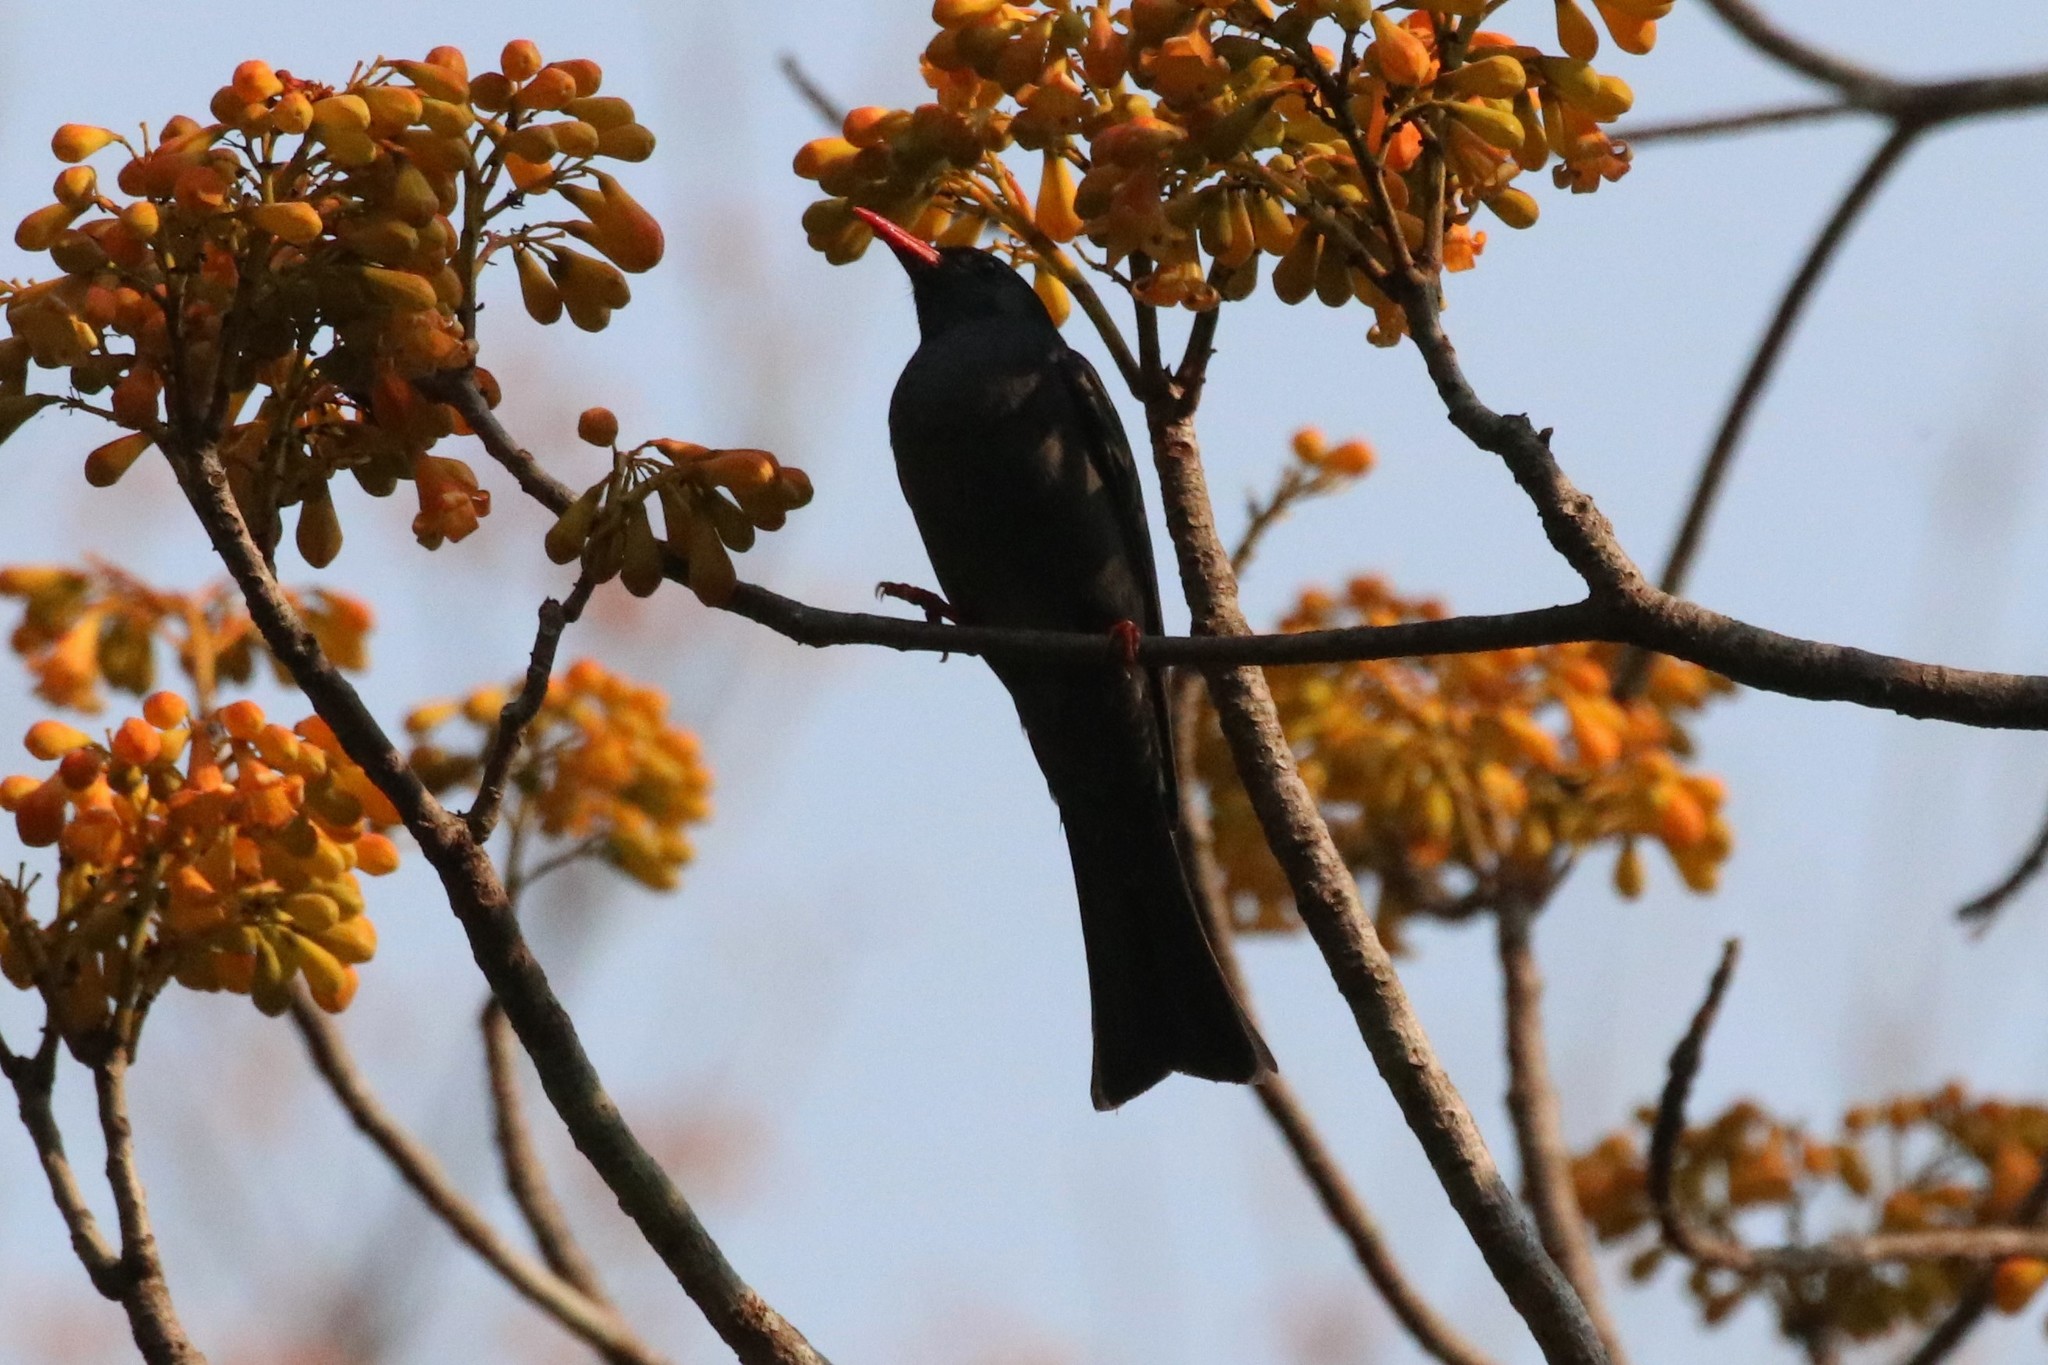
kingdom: Animalia
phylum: Chordata
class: Aves
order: Passeriformes
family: Pycnonotidae
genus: Hypsipetes
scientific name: Hypsipetes leucocephalus
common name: Black bulbul
